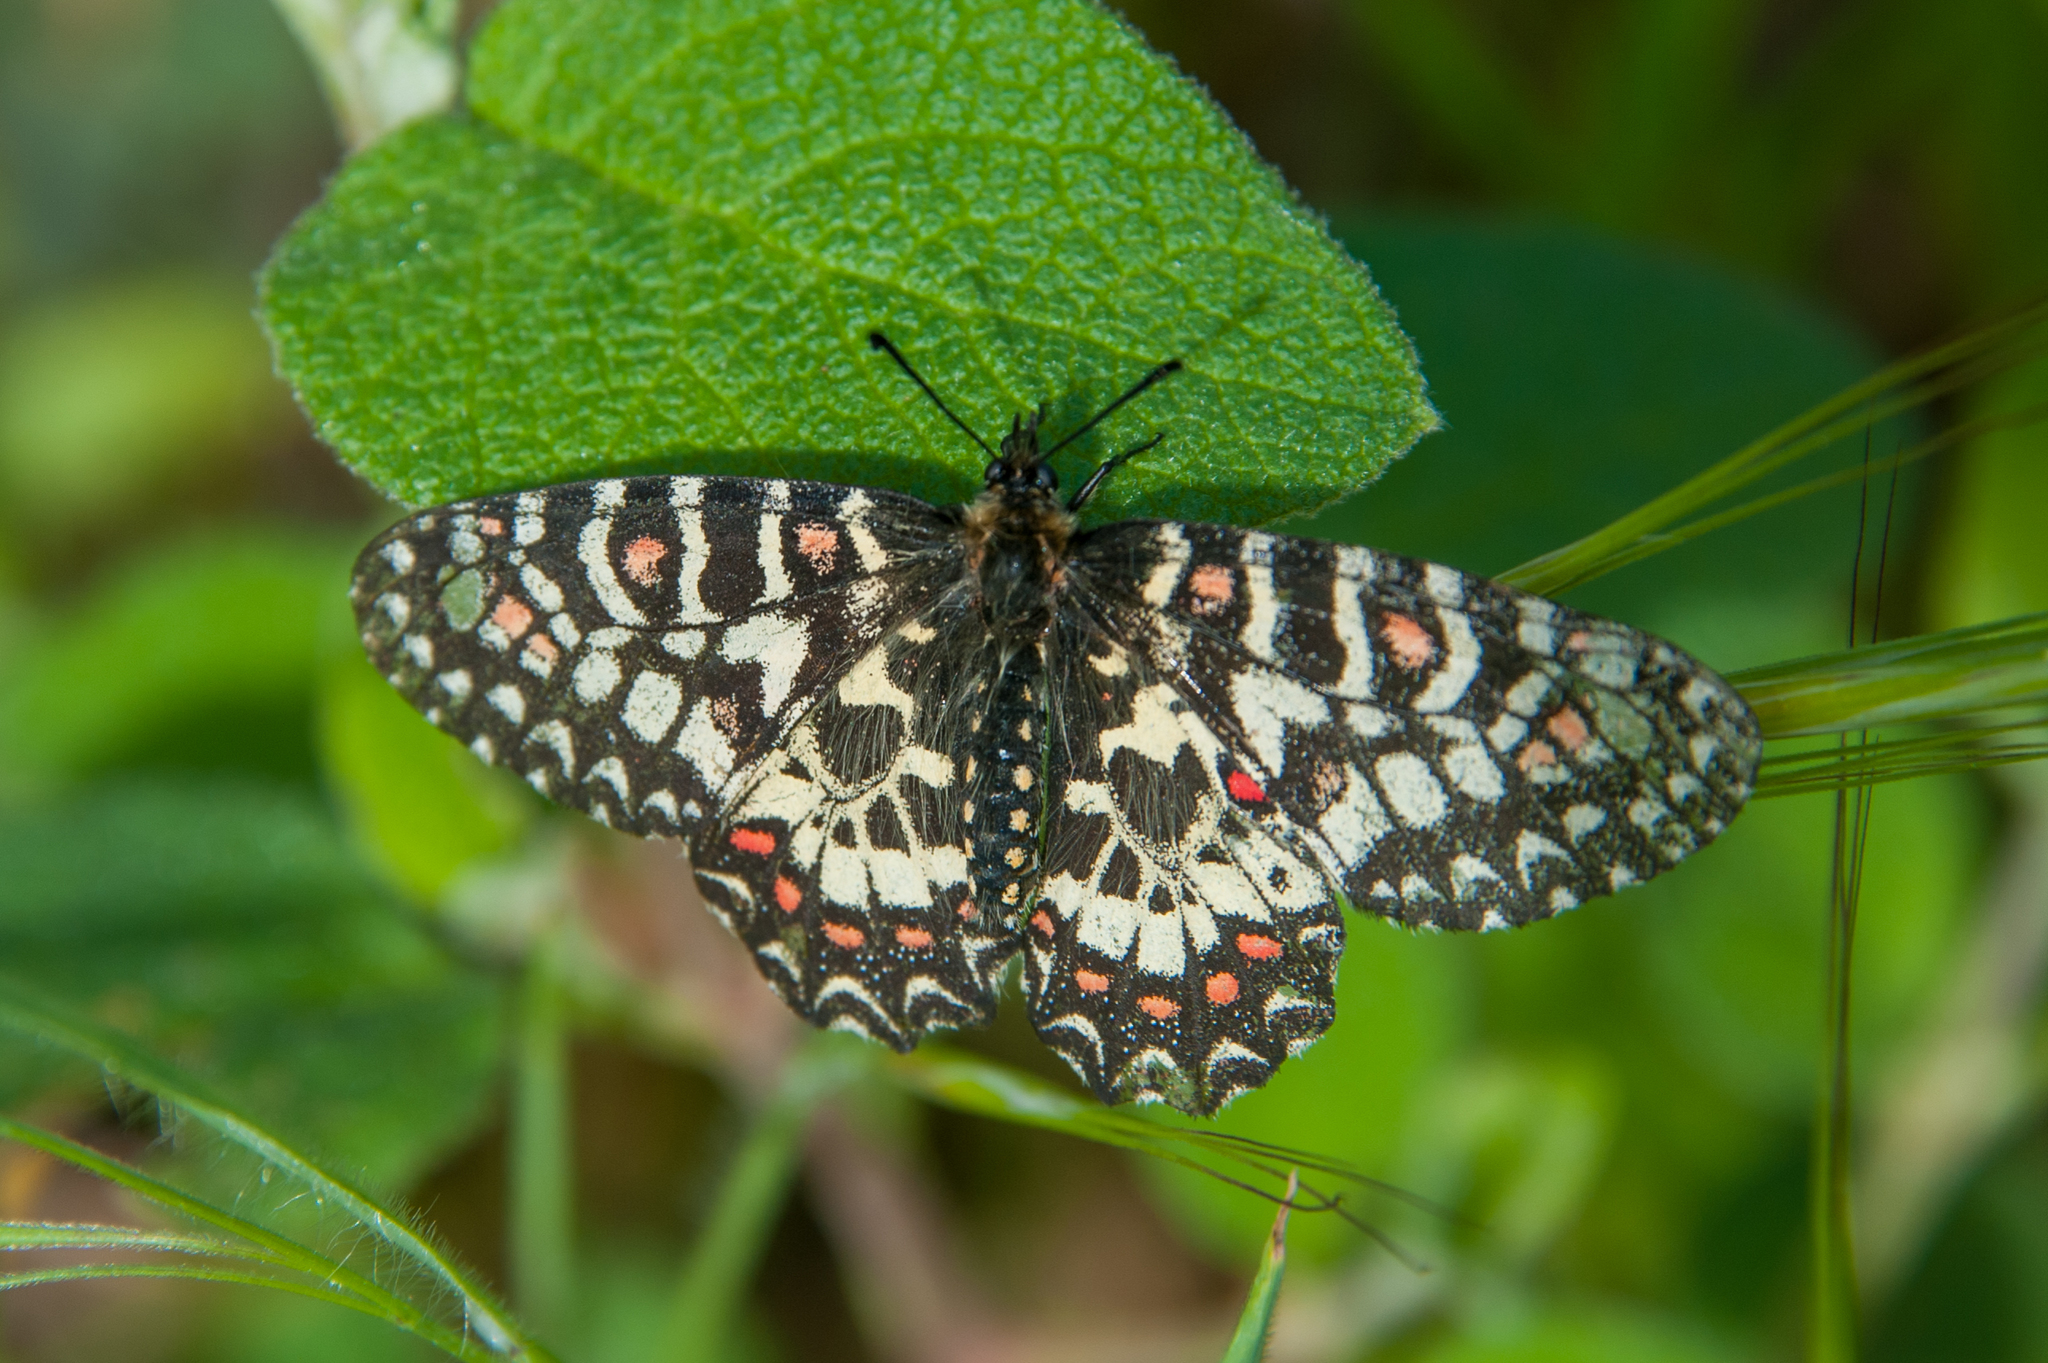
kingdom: Animalia
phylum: Arthropoda
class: Insecta
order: Lepidoptera
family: Papilionidae
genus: Zerynthia
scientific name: Zerynthia rumina
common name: Spanish festoon
